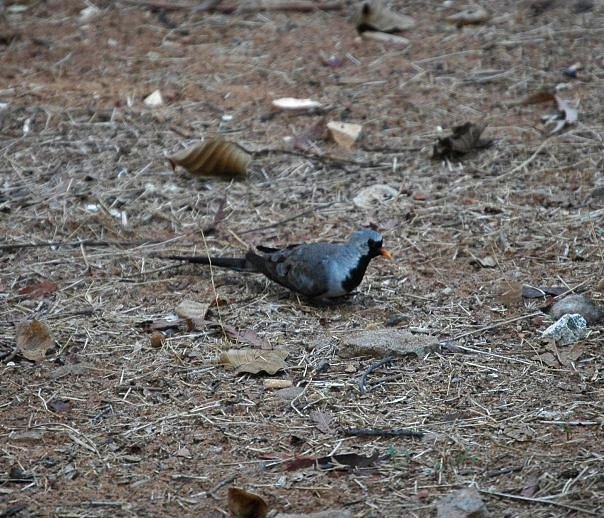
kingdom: Animalia
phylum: Chordata
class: Aves
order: Columbiformes
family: Columbidae
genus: Oena
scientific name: Oena capensis
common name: Namaqua dove
